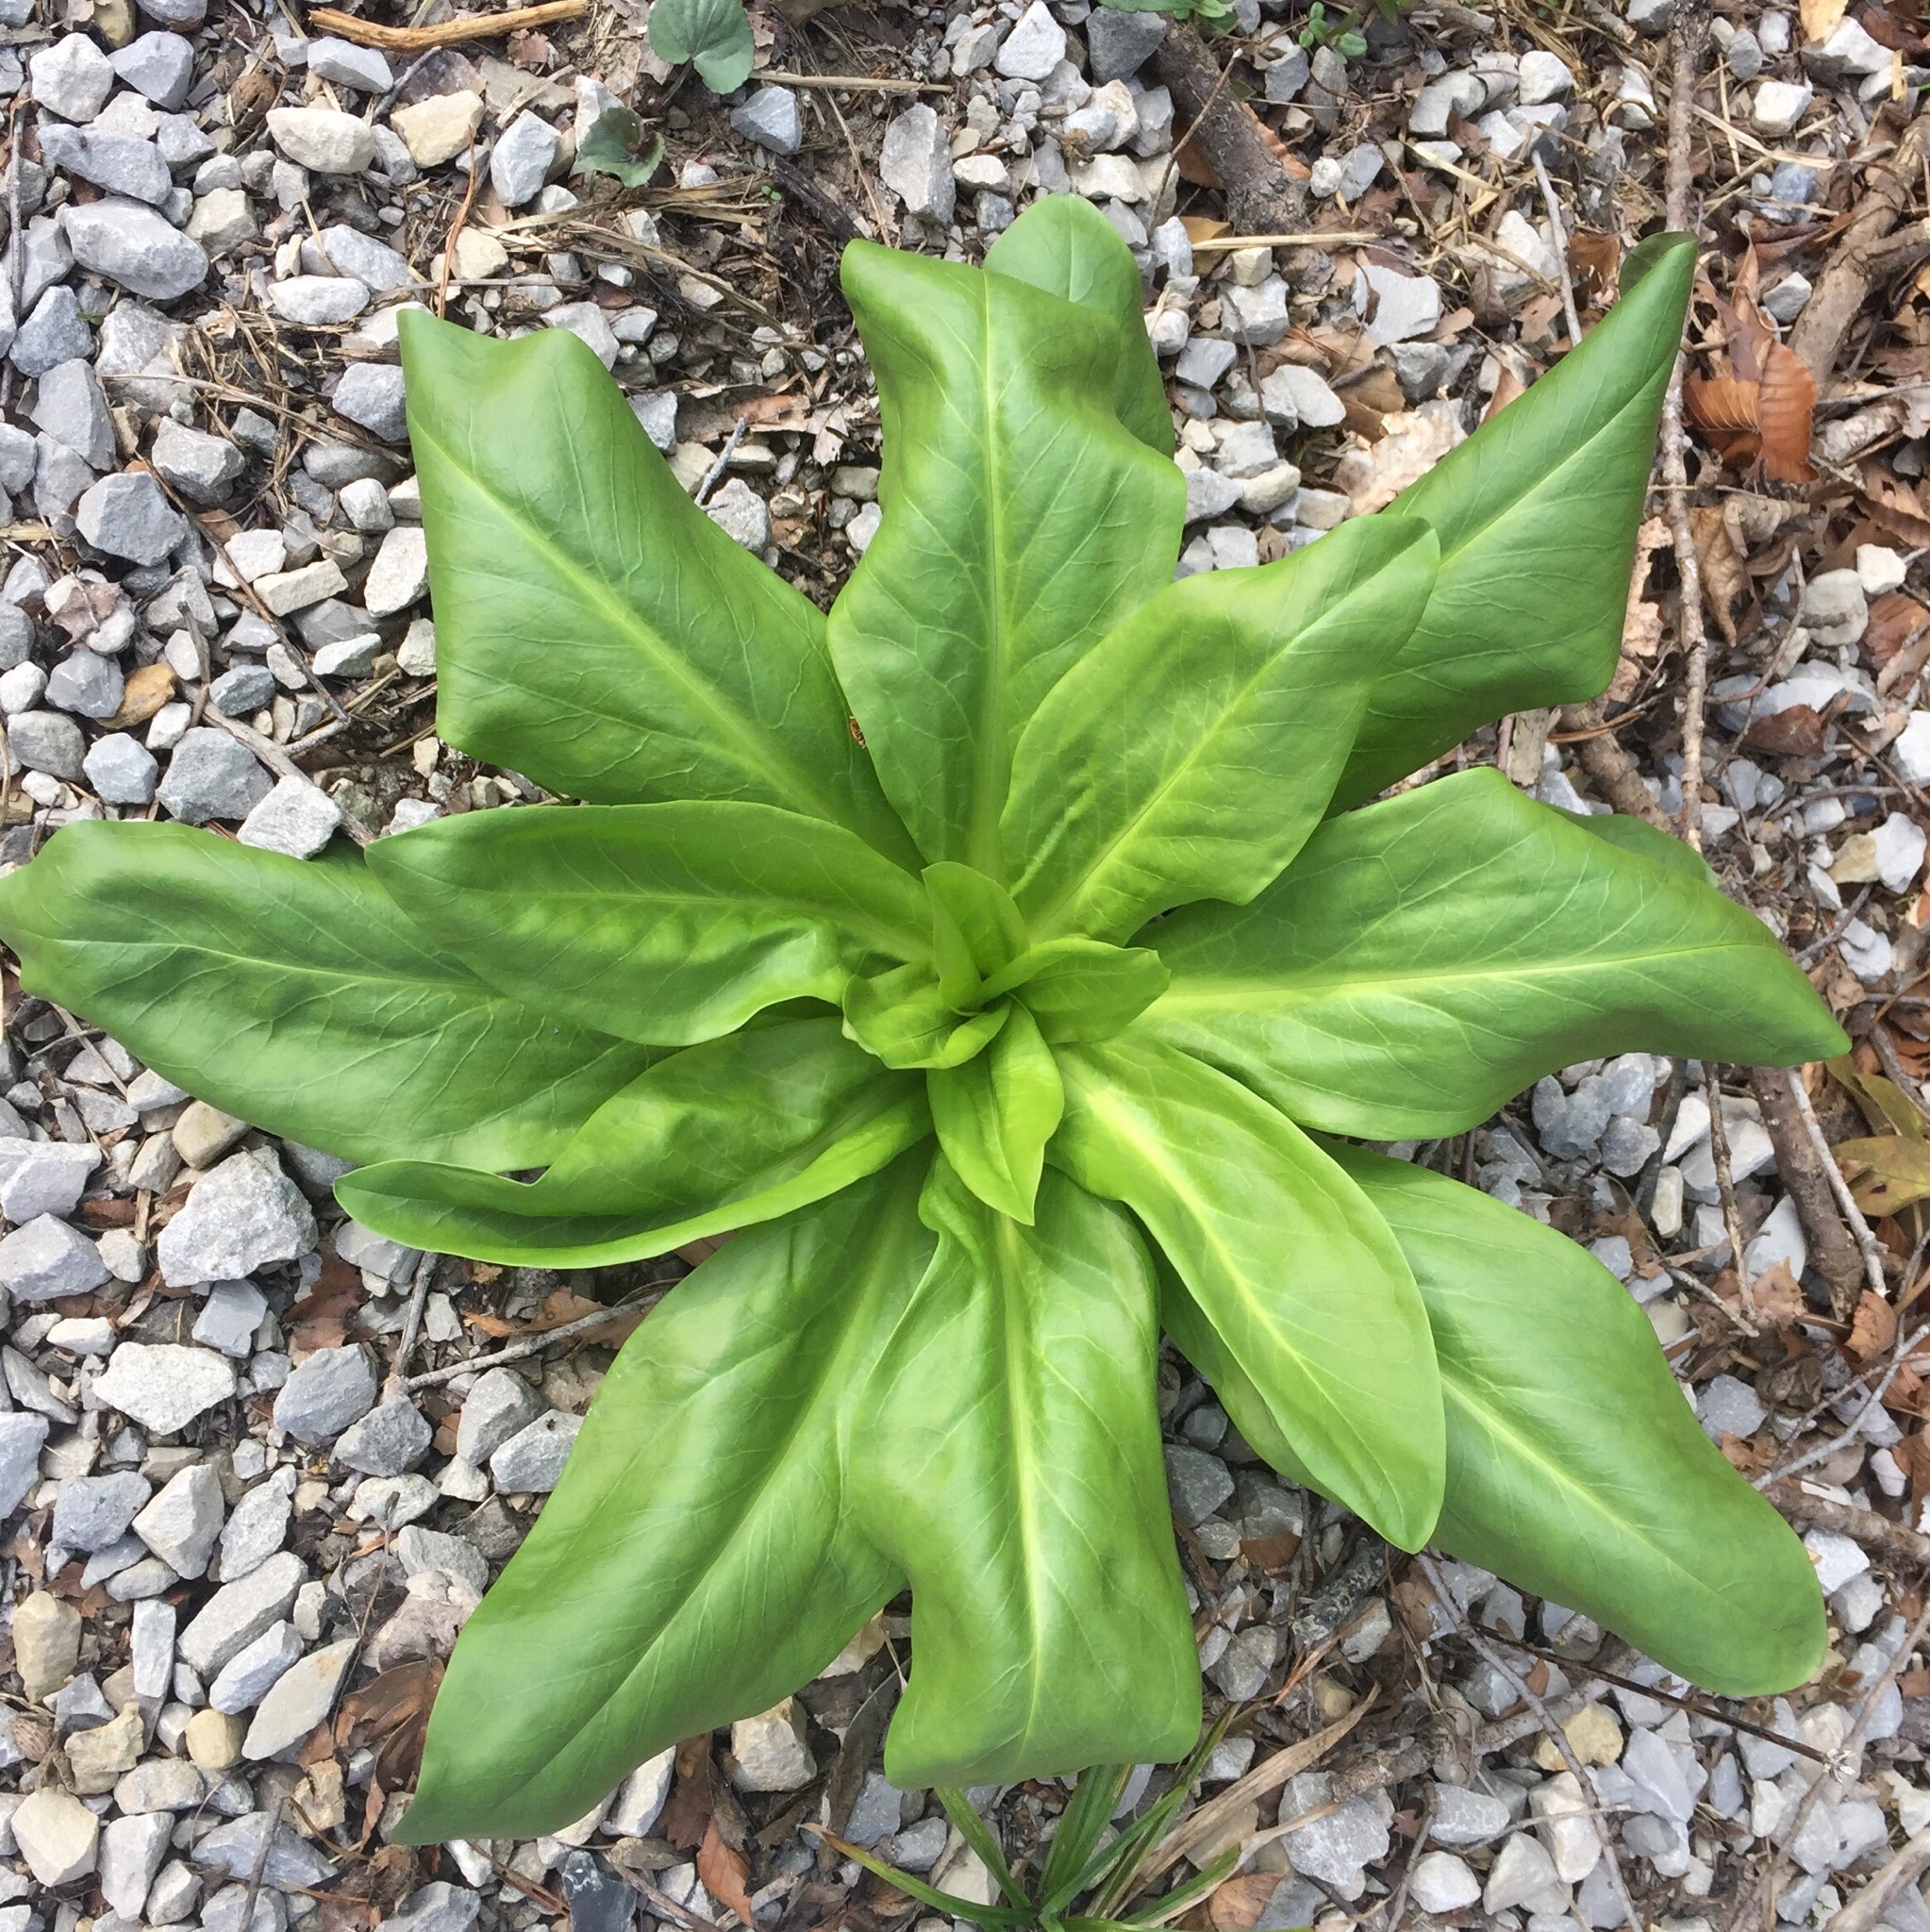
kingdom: Plantae
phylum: Tracheophyta
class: Magnoliopsida
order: Gentianales
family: Gentianaceae
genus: Frasera
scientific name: Frasera caroliniensis
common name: American columbo
